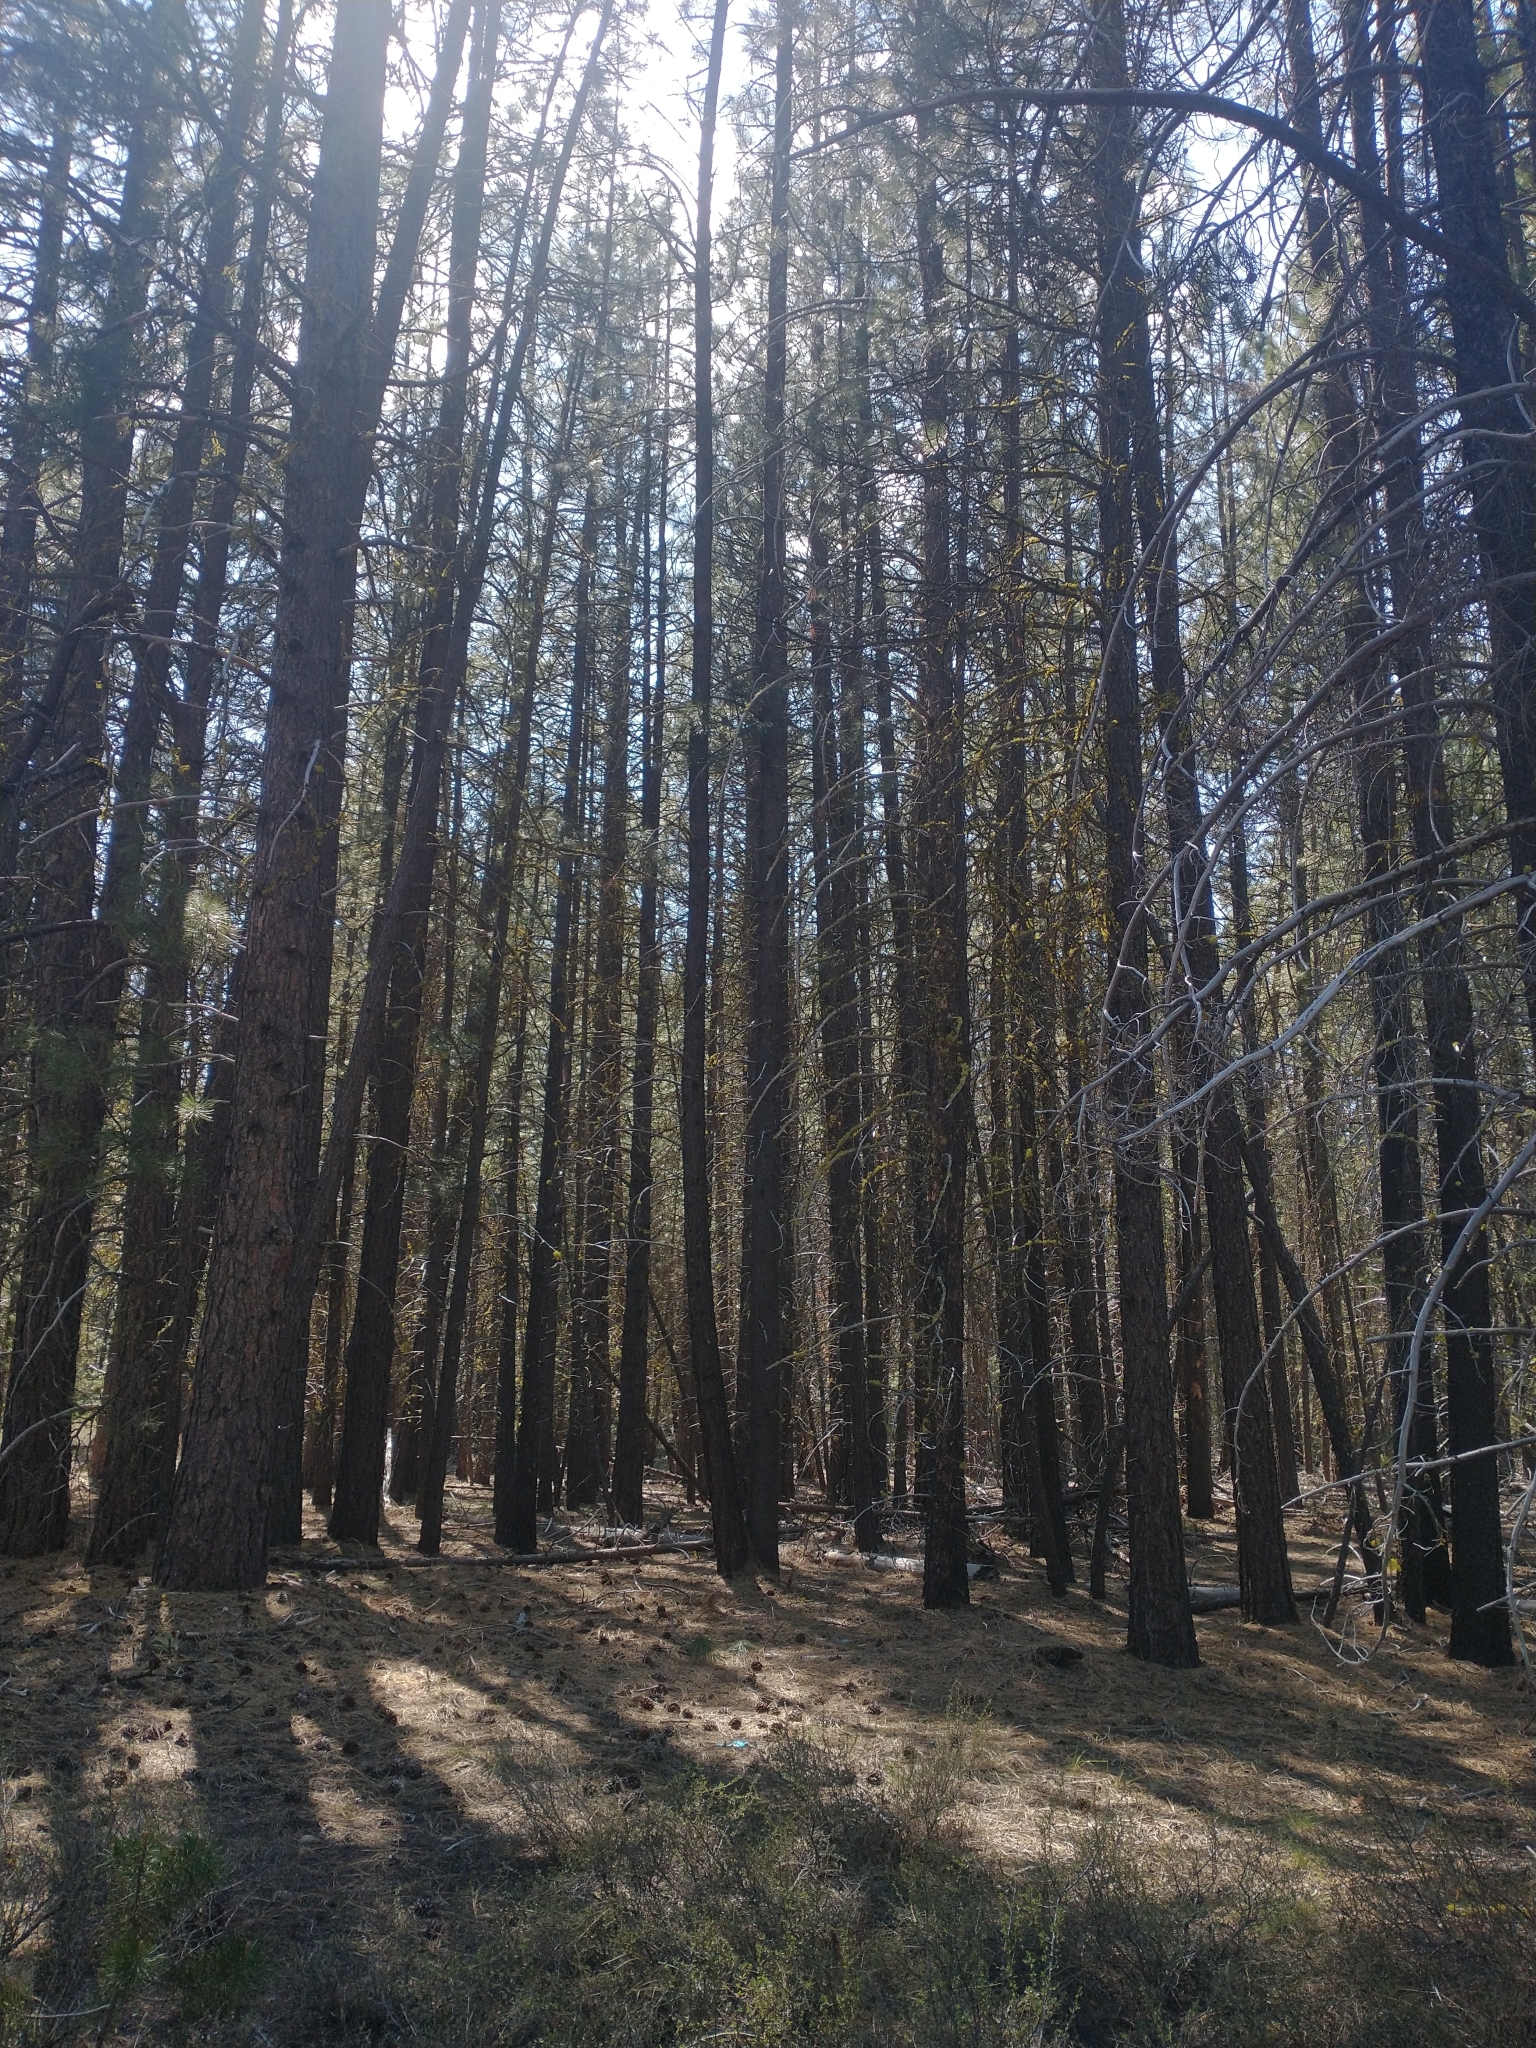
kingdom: Plantae
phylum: Tracheophyta
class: Pinopsida
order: Pinales
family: Pinaceae
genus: Pinus
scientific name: Pinus ponderosa
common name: Western yellow-pine
